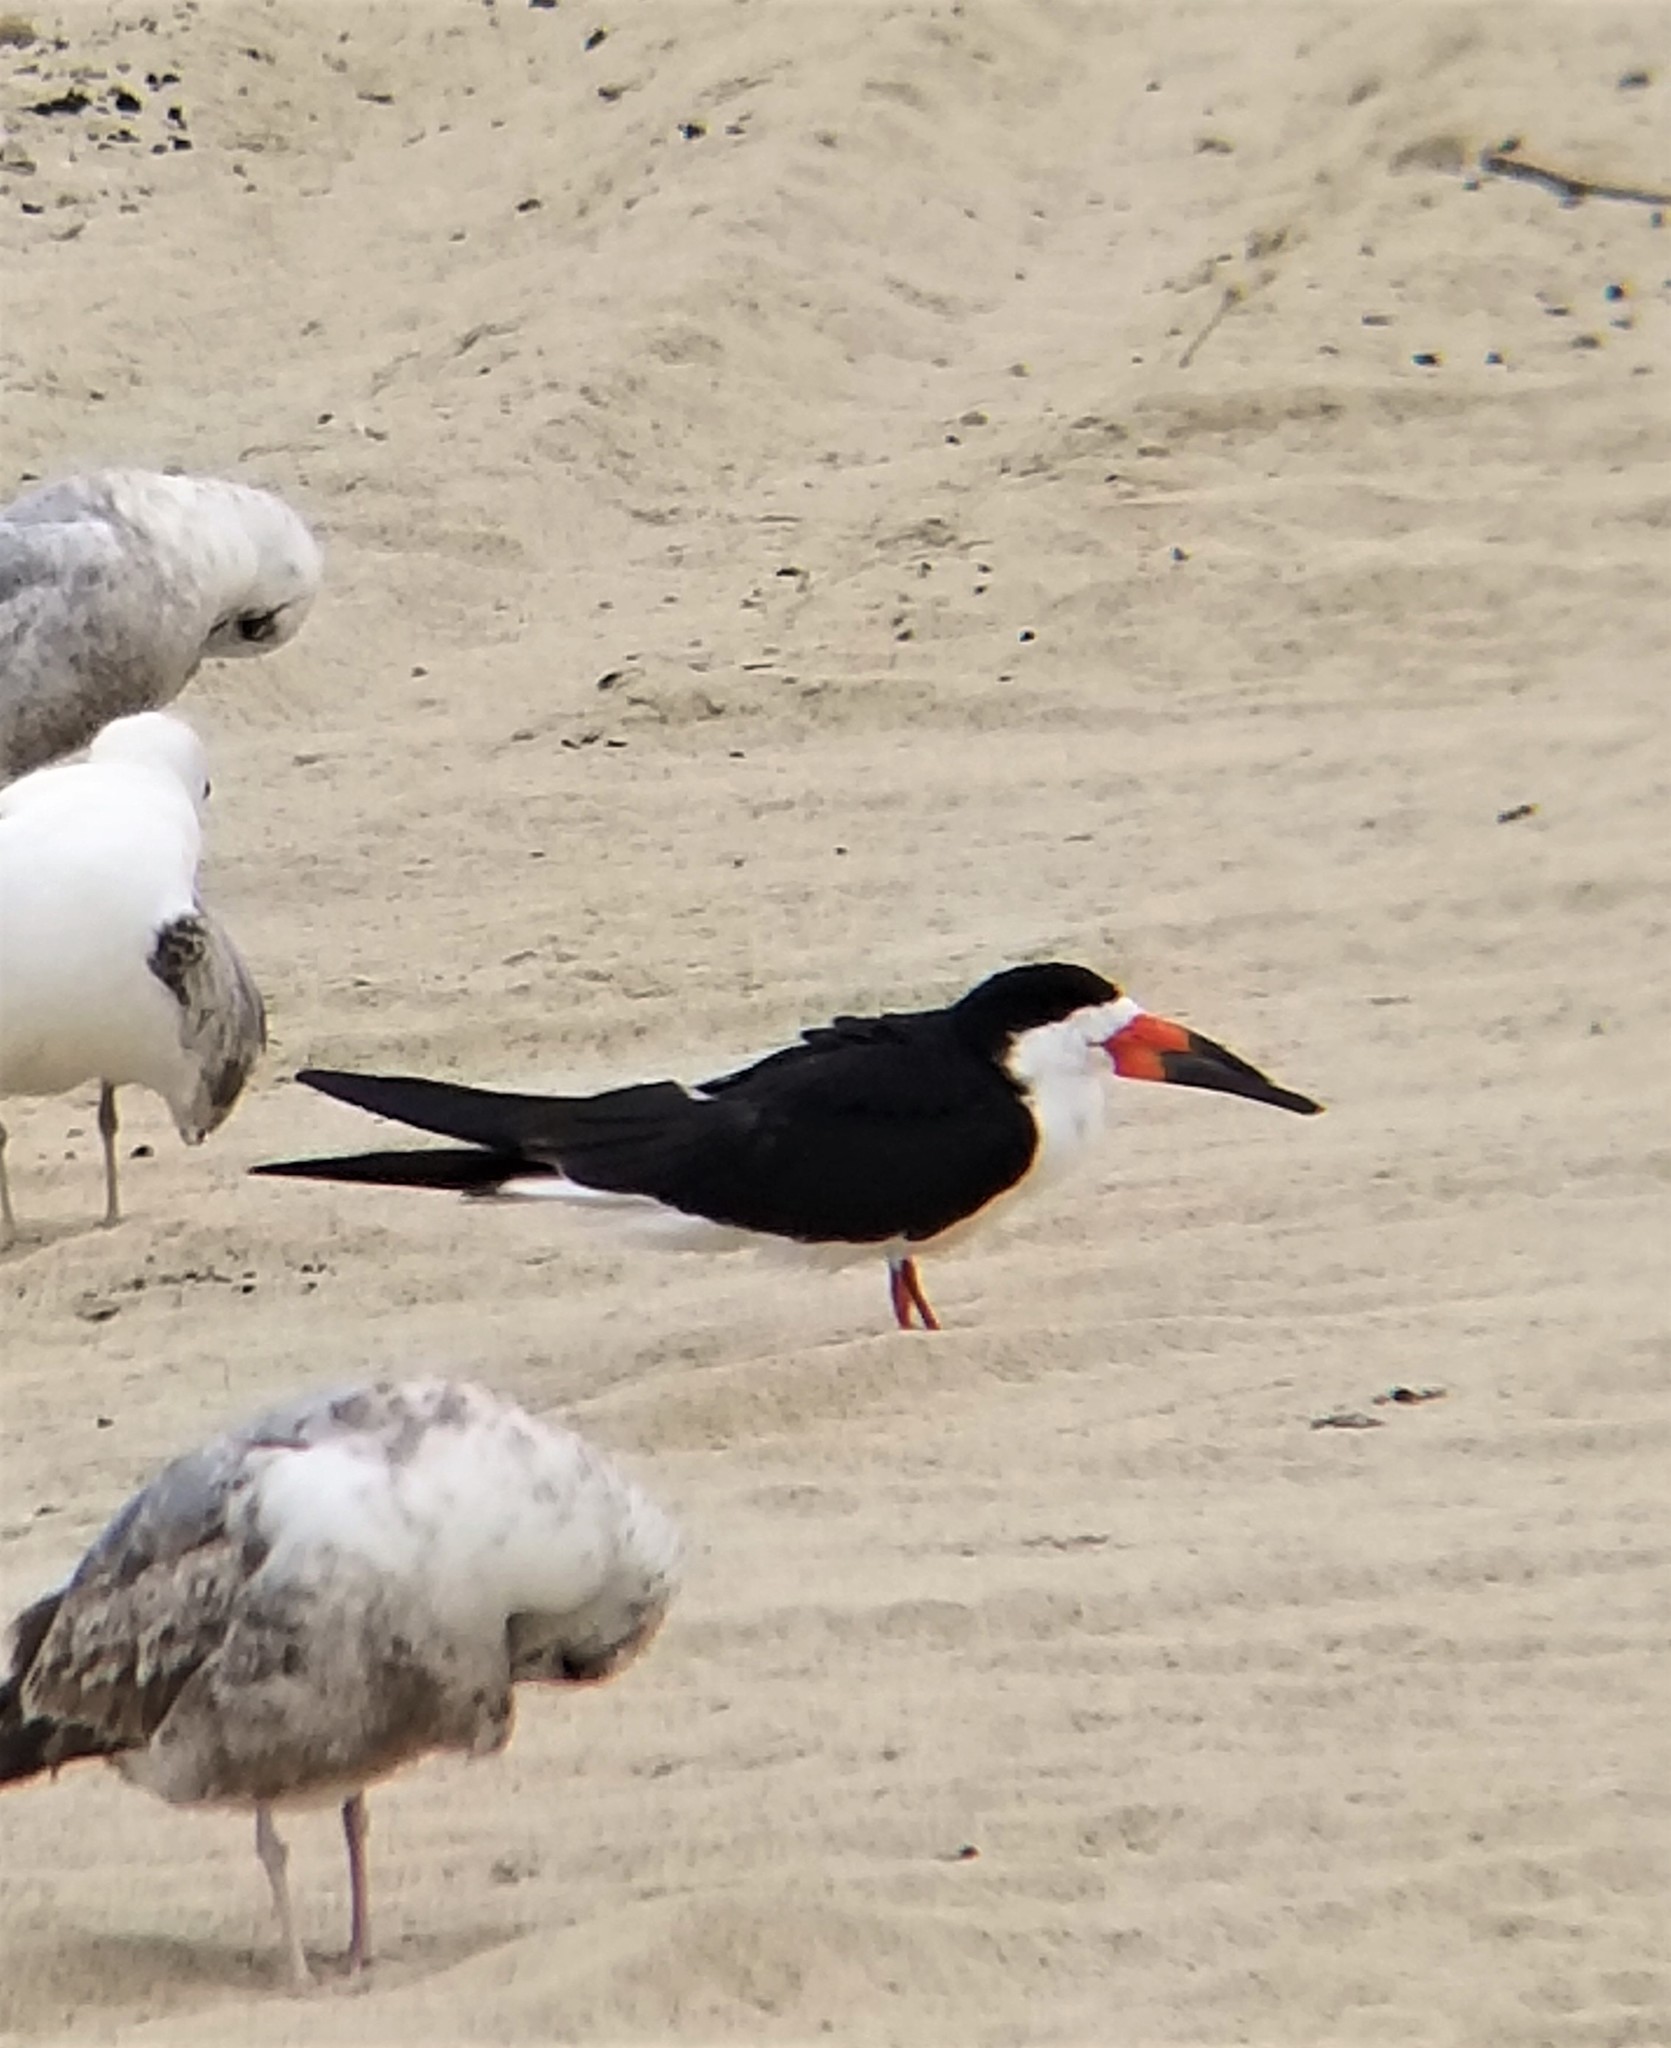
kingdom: Animalia
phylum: Chordata
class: Aves
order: Charadriiformes
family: Laridae
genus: Rynchops
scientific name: Rynchops niger
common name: Black skimmer
